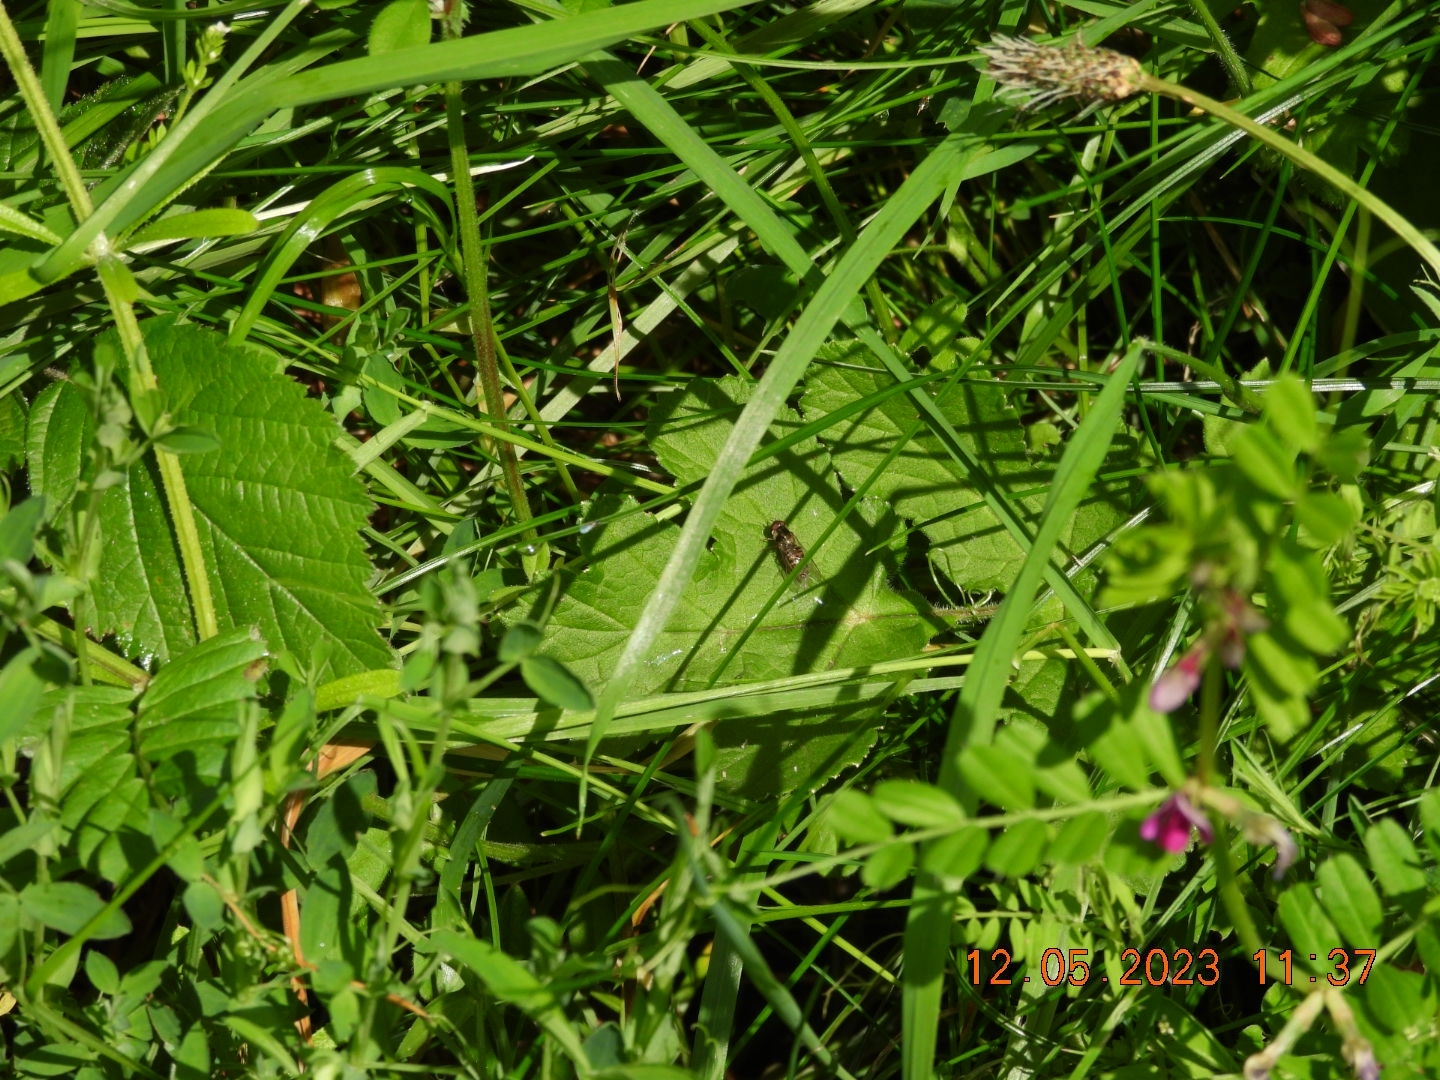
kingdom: Animalia
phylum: Arthropoda
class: Insecta
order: Diptera
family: Syrphidae
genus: Episyrphus
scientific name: Episyrphus balteatus
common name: Marmalade hoverfly
